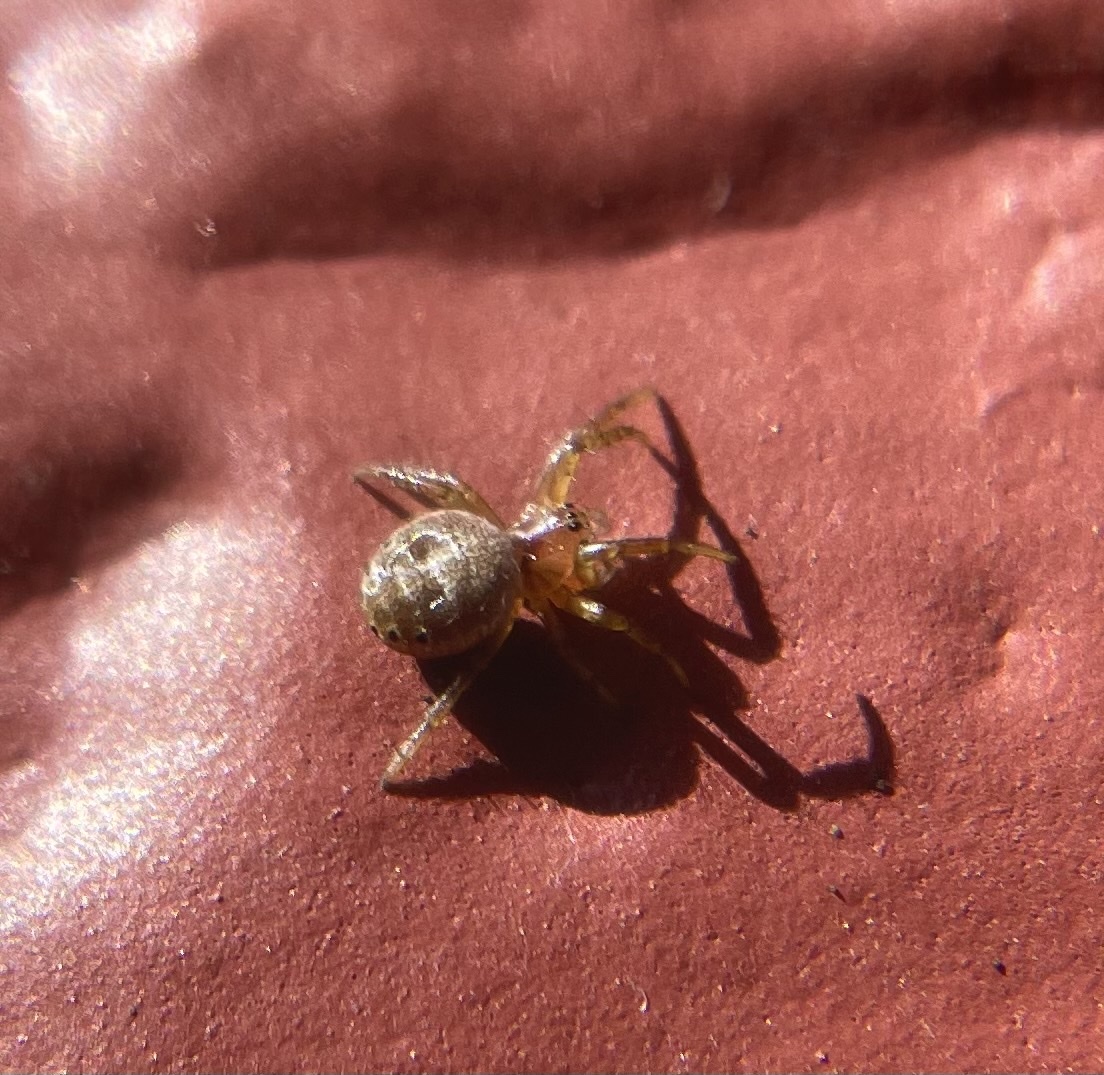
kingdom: Animalia
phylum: Arthropoda
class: Arachnida
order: Araneae
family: Araneidae
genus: Araniella
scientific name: Araniella displicata
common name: Sixspotted orb weaver
